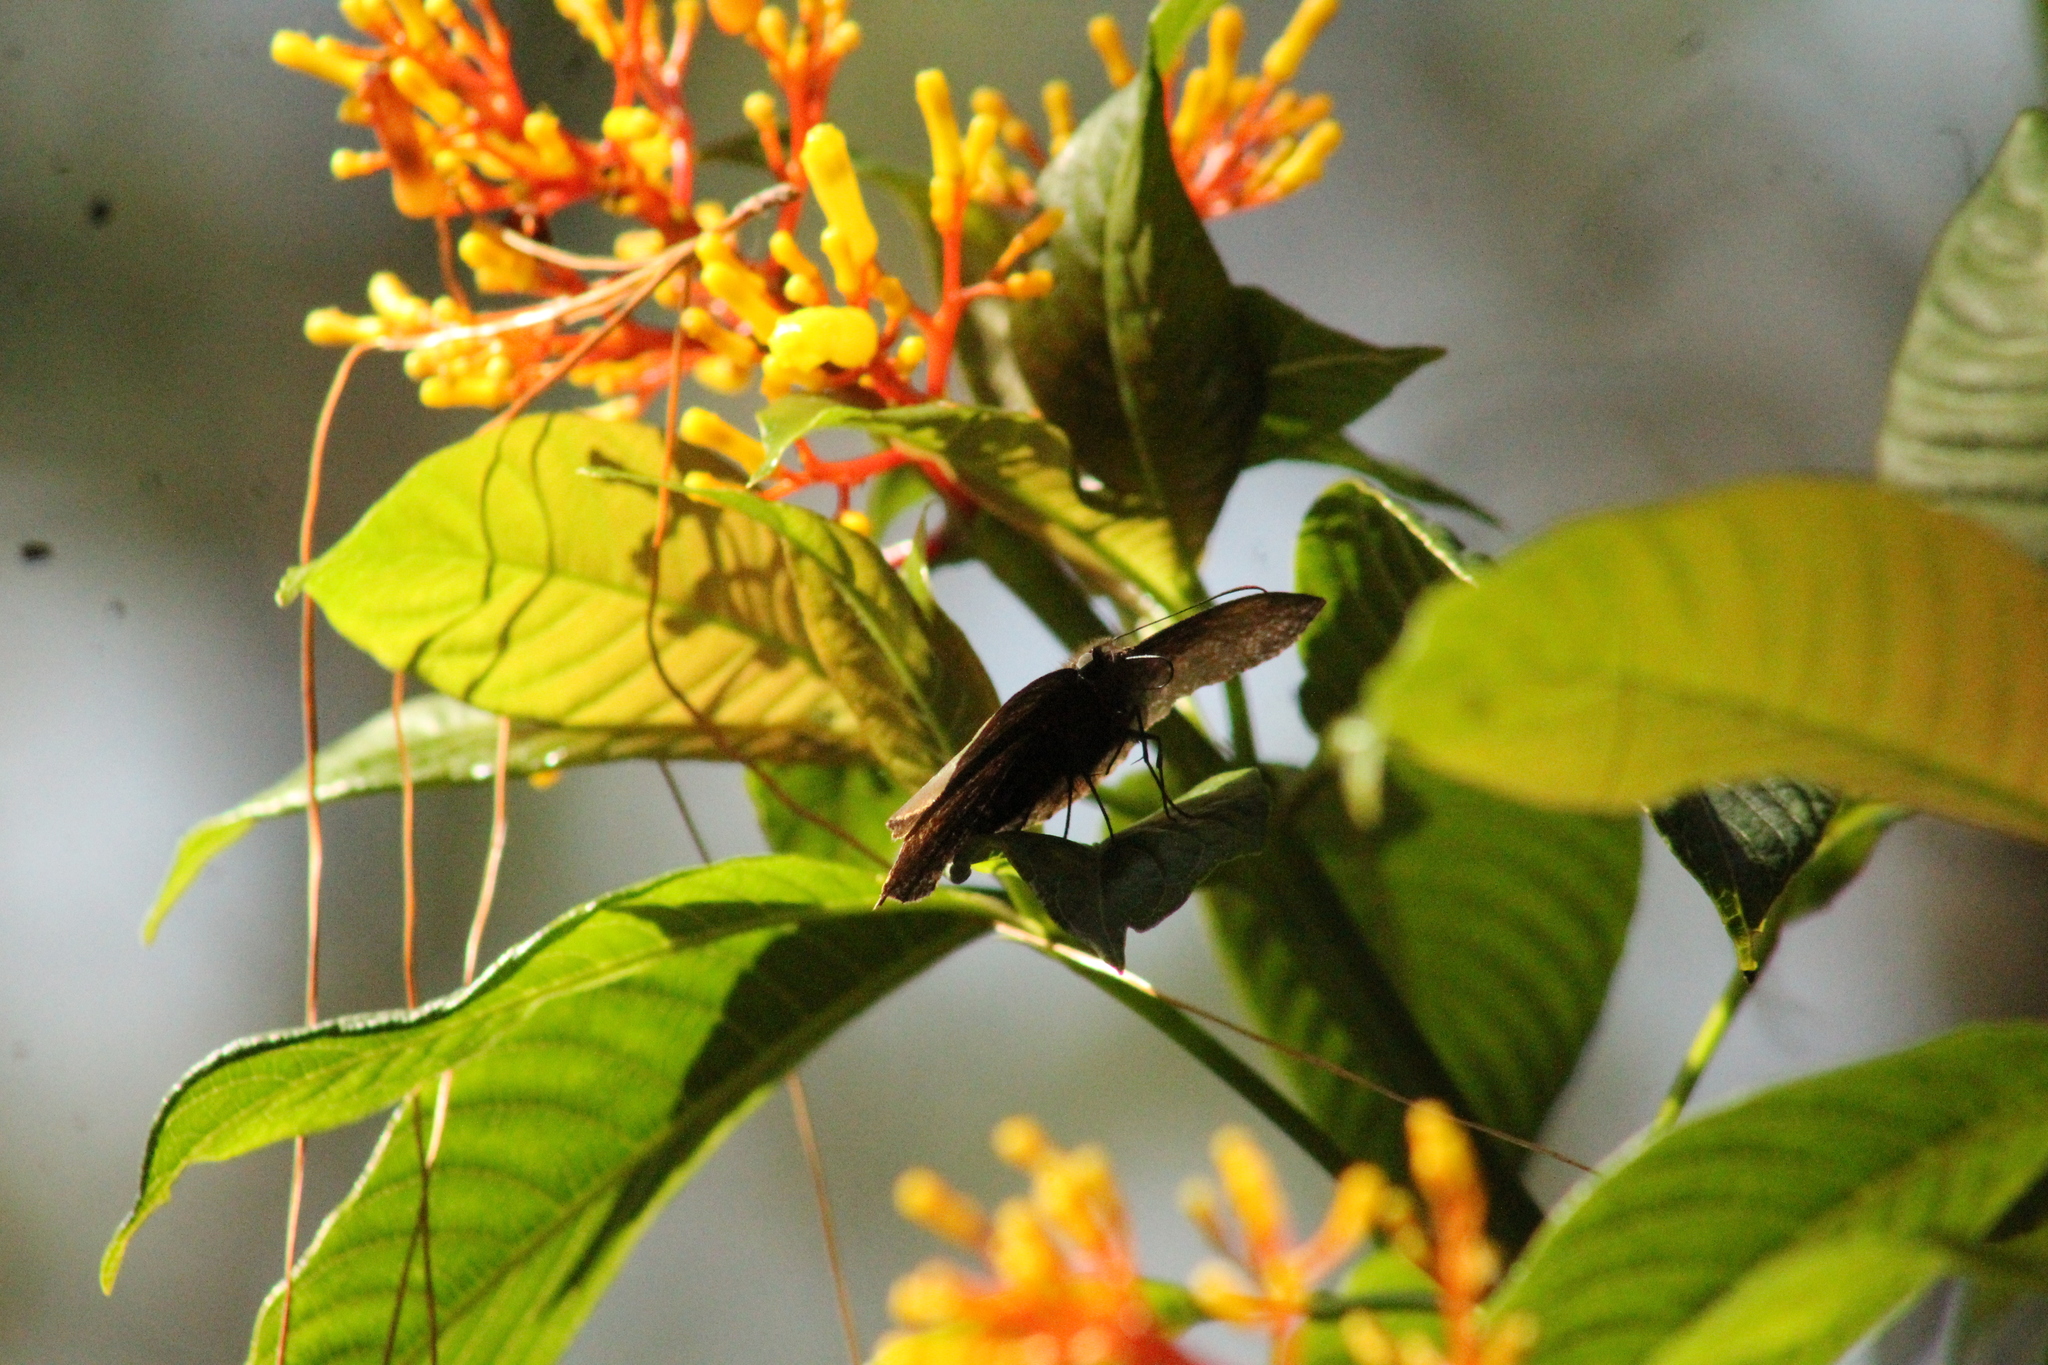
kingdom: Plantae
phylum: Tracheophyta
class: Magnoliopsida
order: Gentianales
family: Rubiaceae
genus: Palicourea
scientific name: Palicourea padifolia
